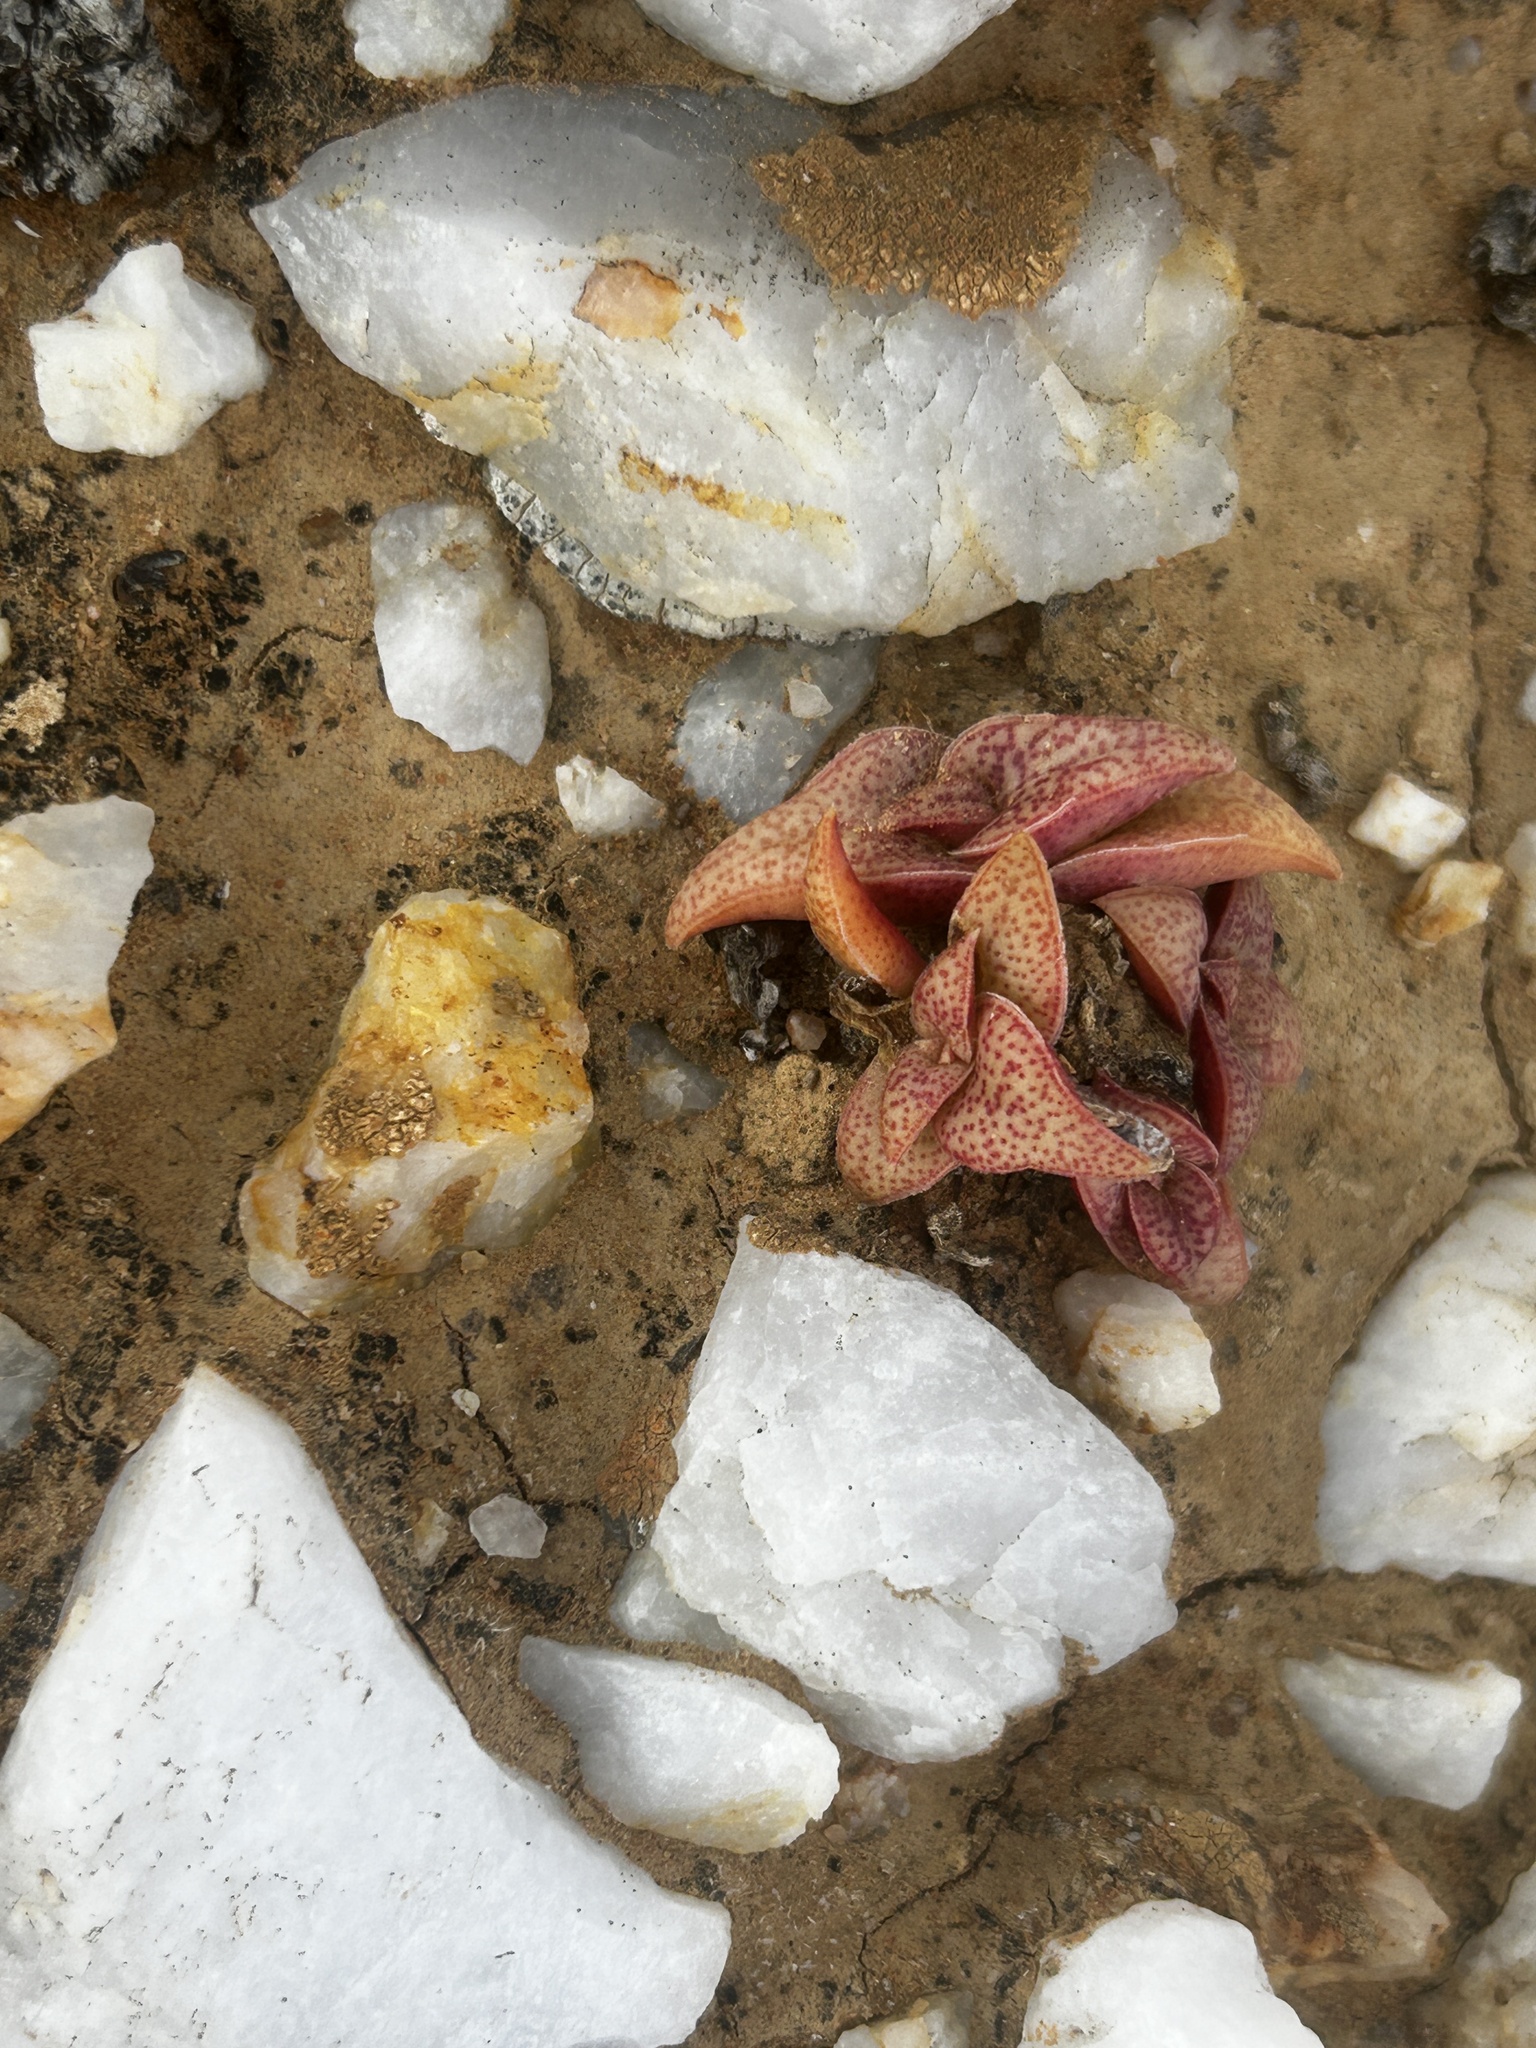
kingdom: Plantae
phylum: Tracheophyta
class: Magnoliopsida
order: Saxifragales
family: Crassulaceae
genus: Crassula
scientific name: Crassula capitella
